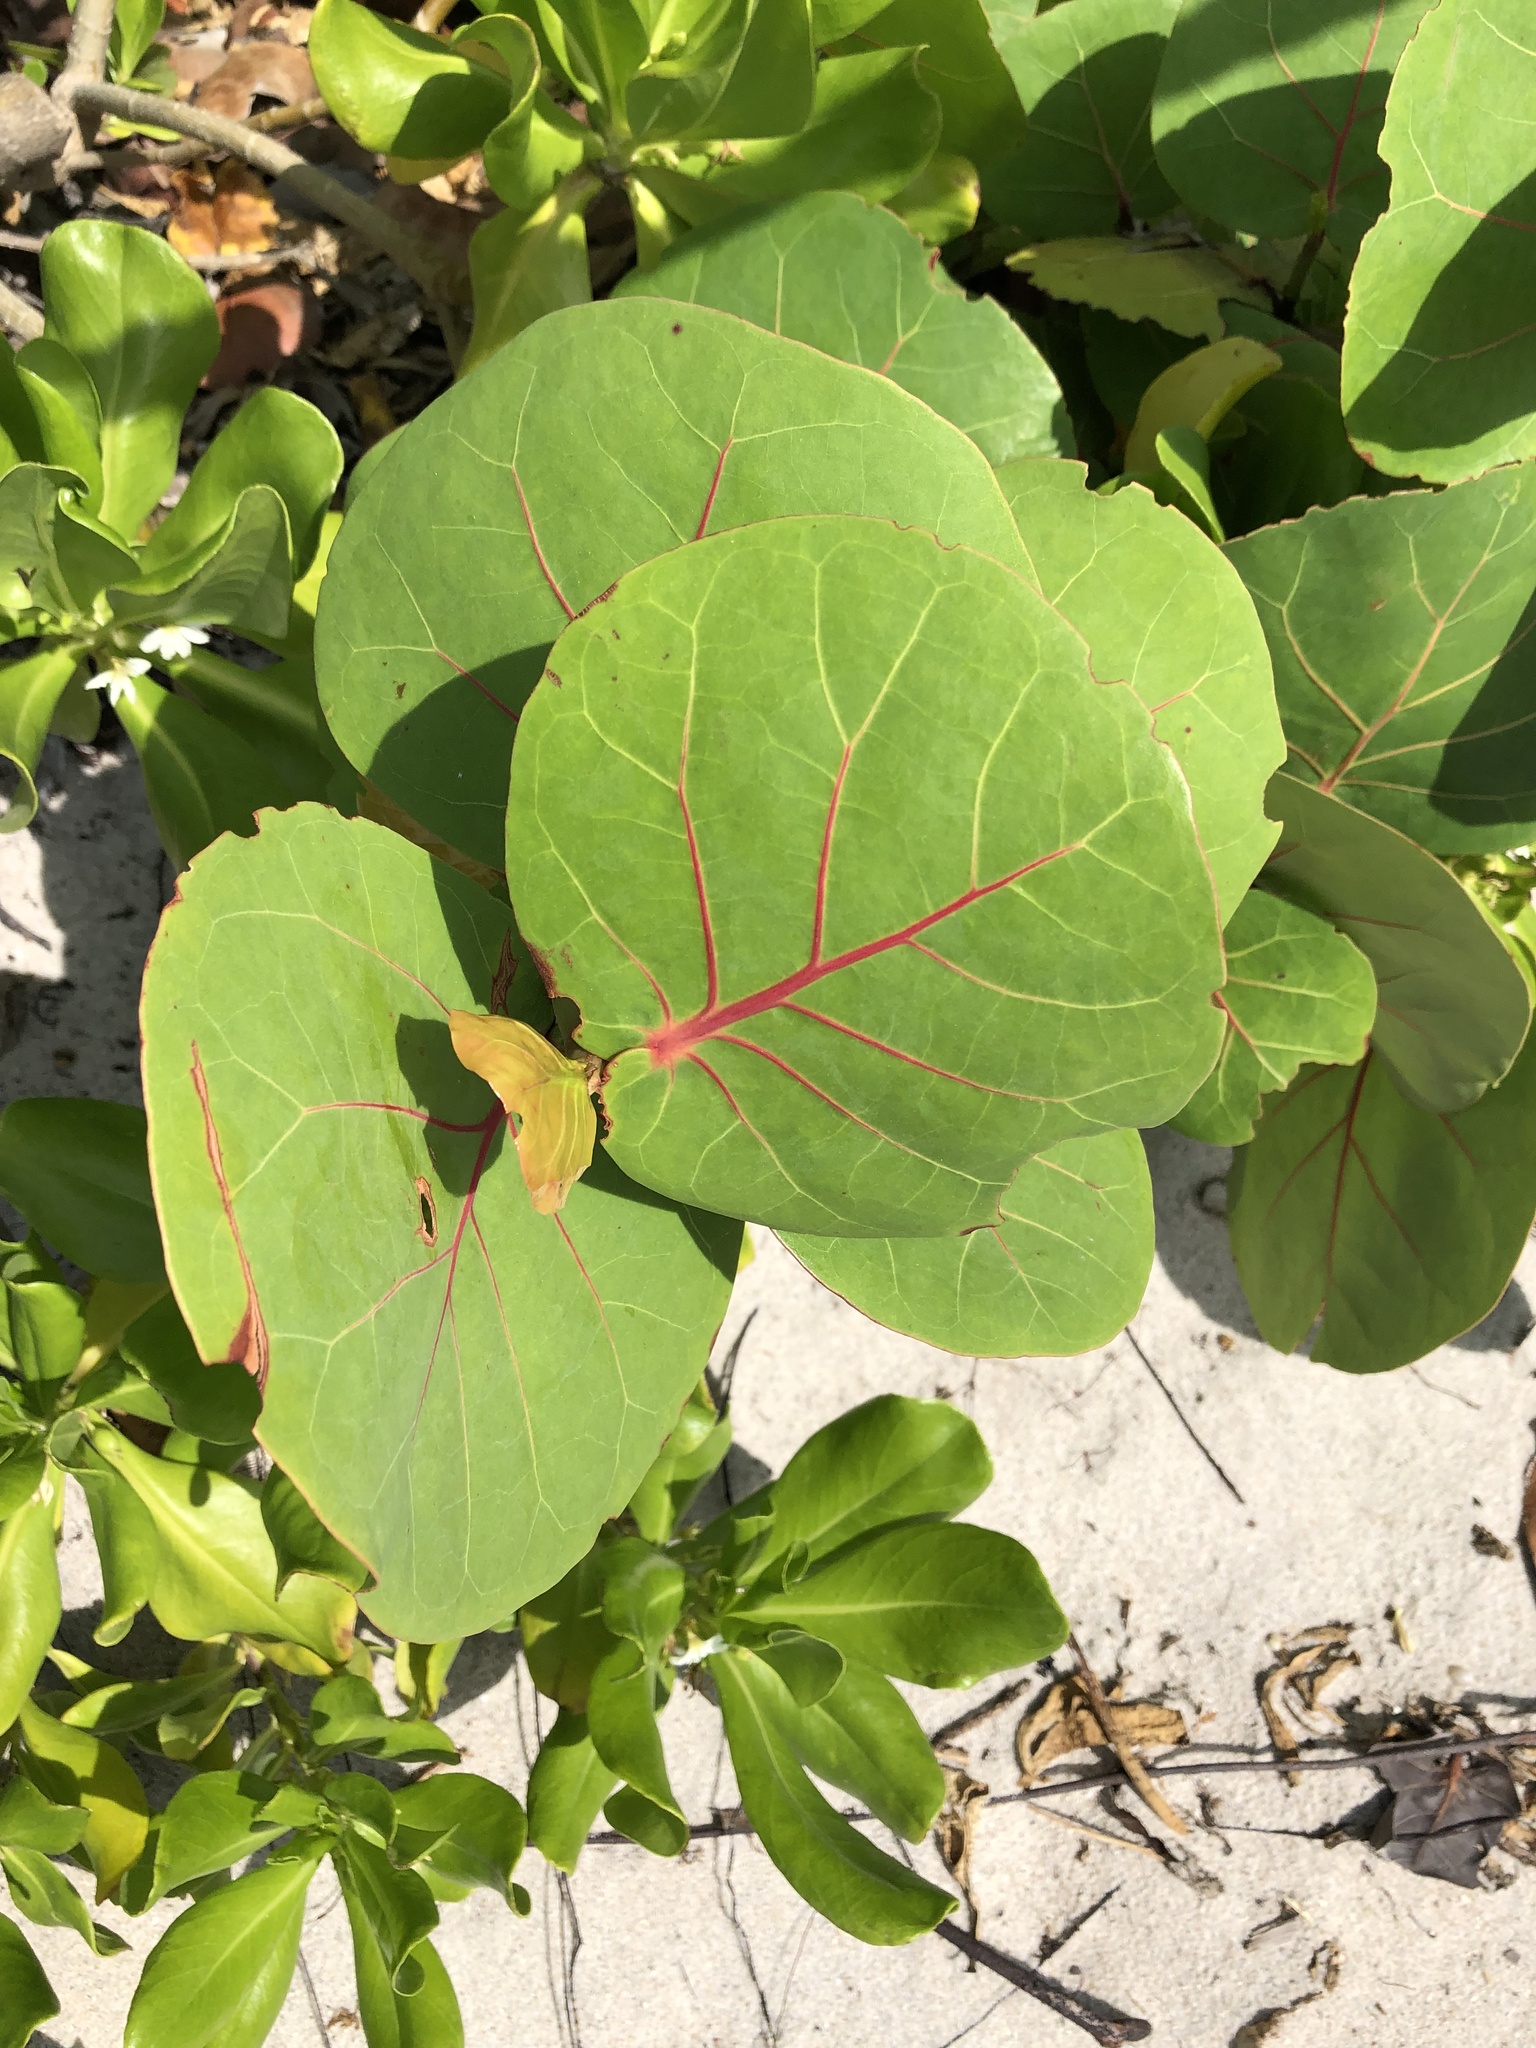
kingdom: Plantae
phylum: Tracheophyta
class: Magnoliopsida
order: Caryophyllales
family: Polygonaceae
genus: Coccoloba
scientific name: Coccoloba uvifera
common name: Seagrape
